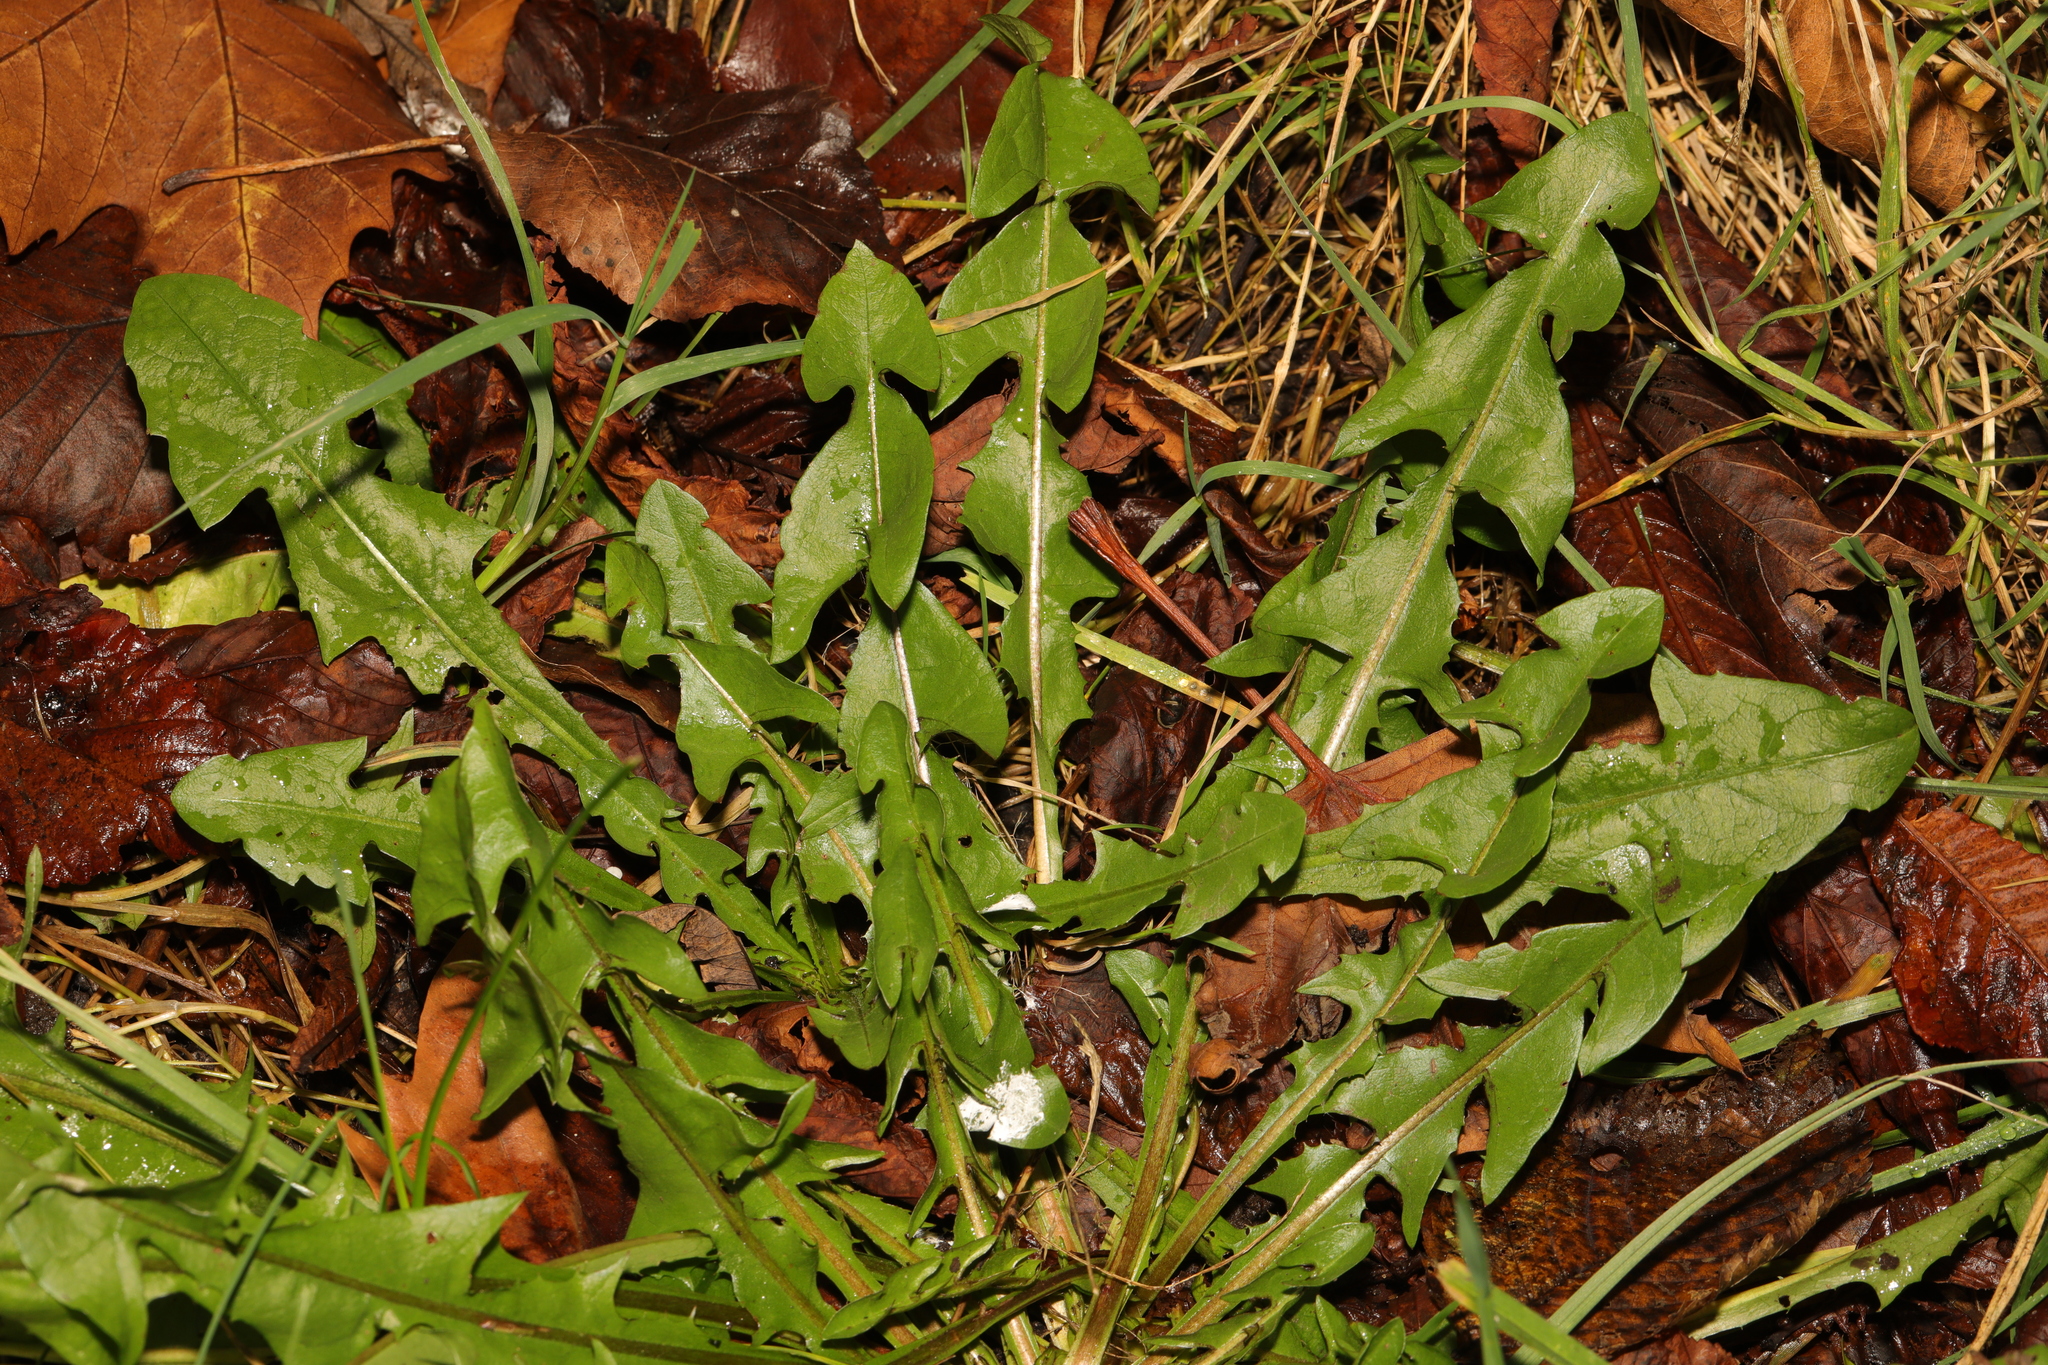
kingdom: Plantae
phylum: Tracheophyta
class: Magnoliopsida
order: Asterales
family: Asteraceae
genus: Taraxacum
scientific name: Taraxacum officinale
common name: Common dandelion
